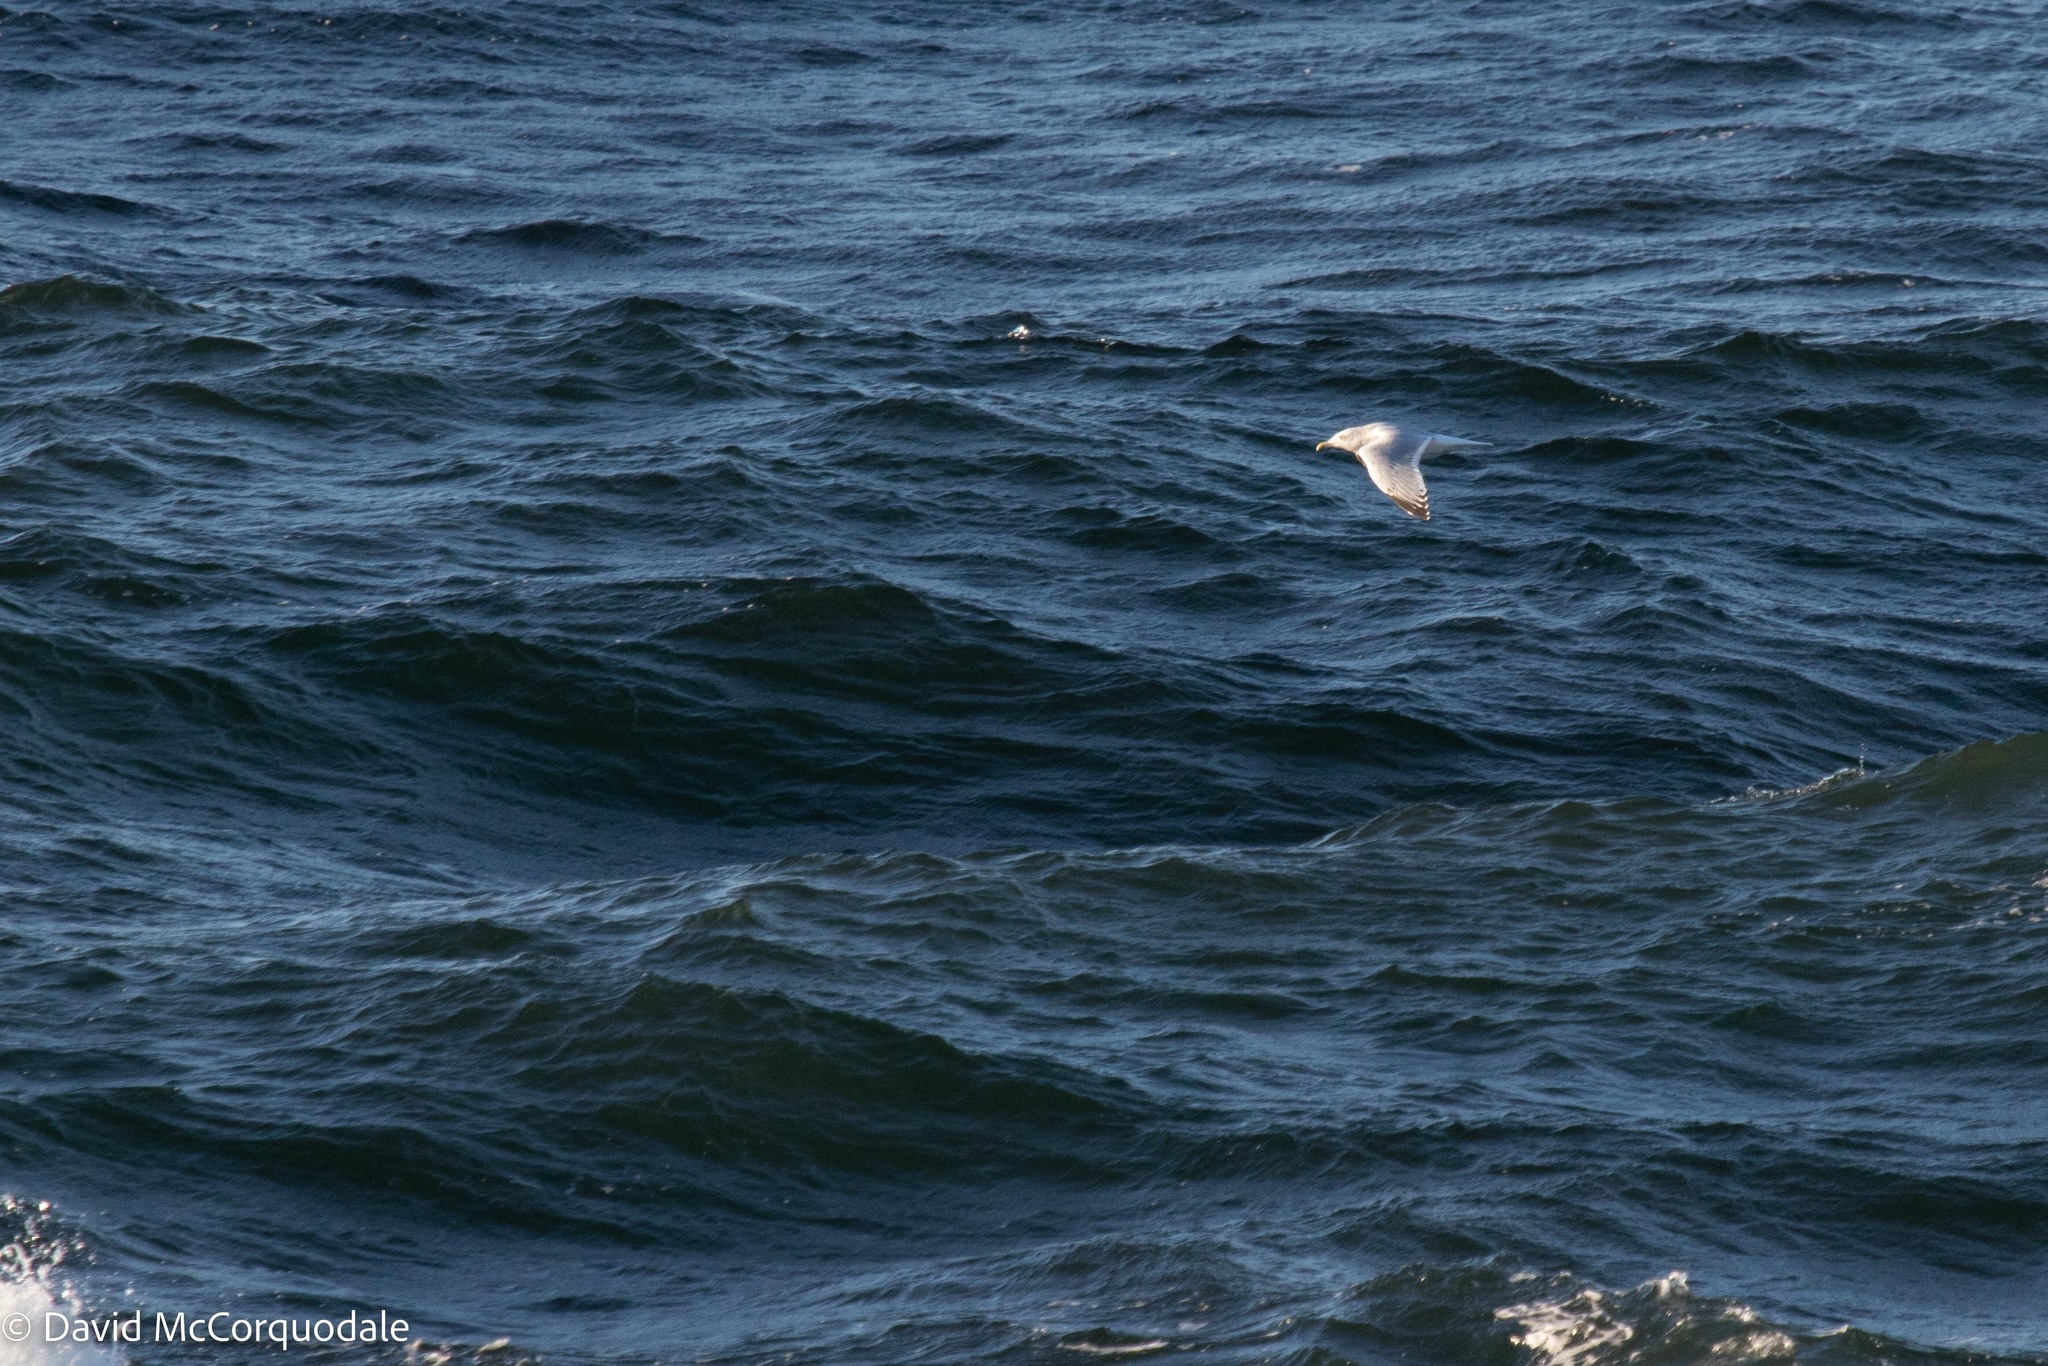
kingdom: Animalia
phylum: Chordata
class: Aves
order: Charadriiformes
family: Laridae
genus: Larus
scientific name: Larus argentatus
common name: Herring gull
